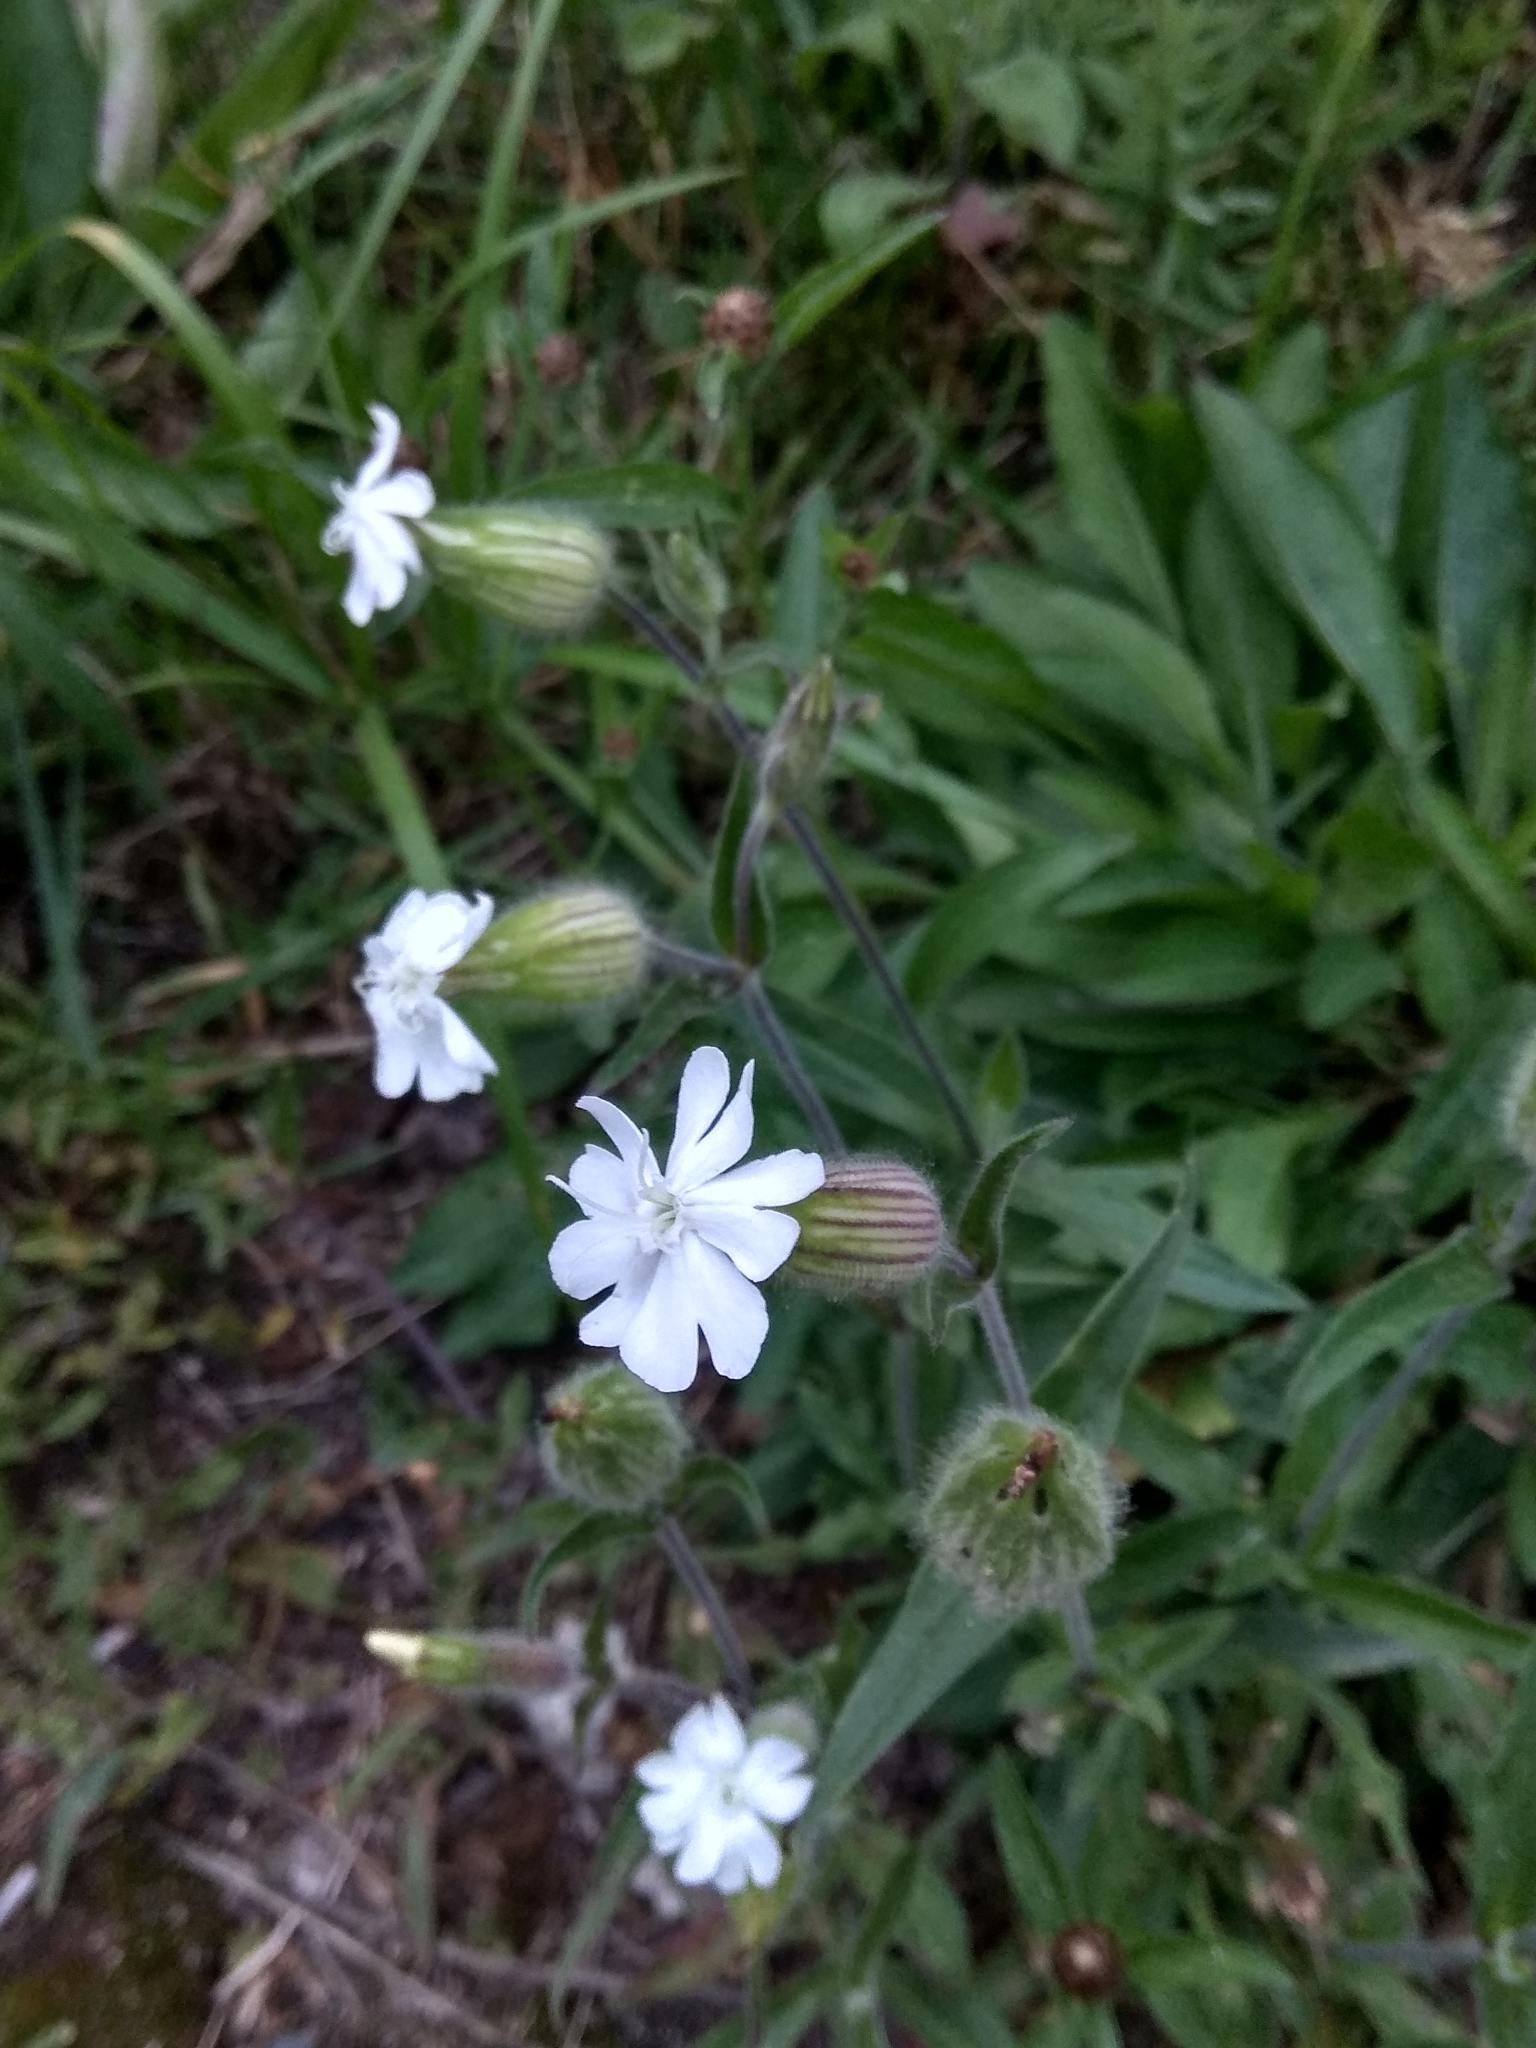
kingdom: Plantae
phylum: Tracheophyta
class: Magnoliopsida
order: Caryophyllales
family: Caryophyllaceae
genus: Silene
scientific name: Silene latifolia
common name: White campion
